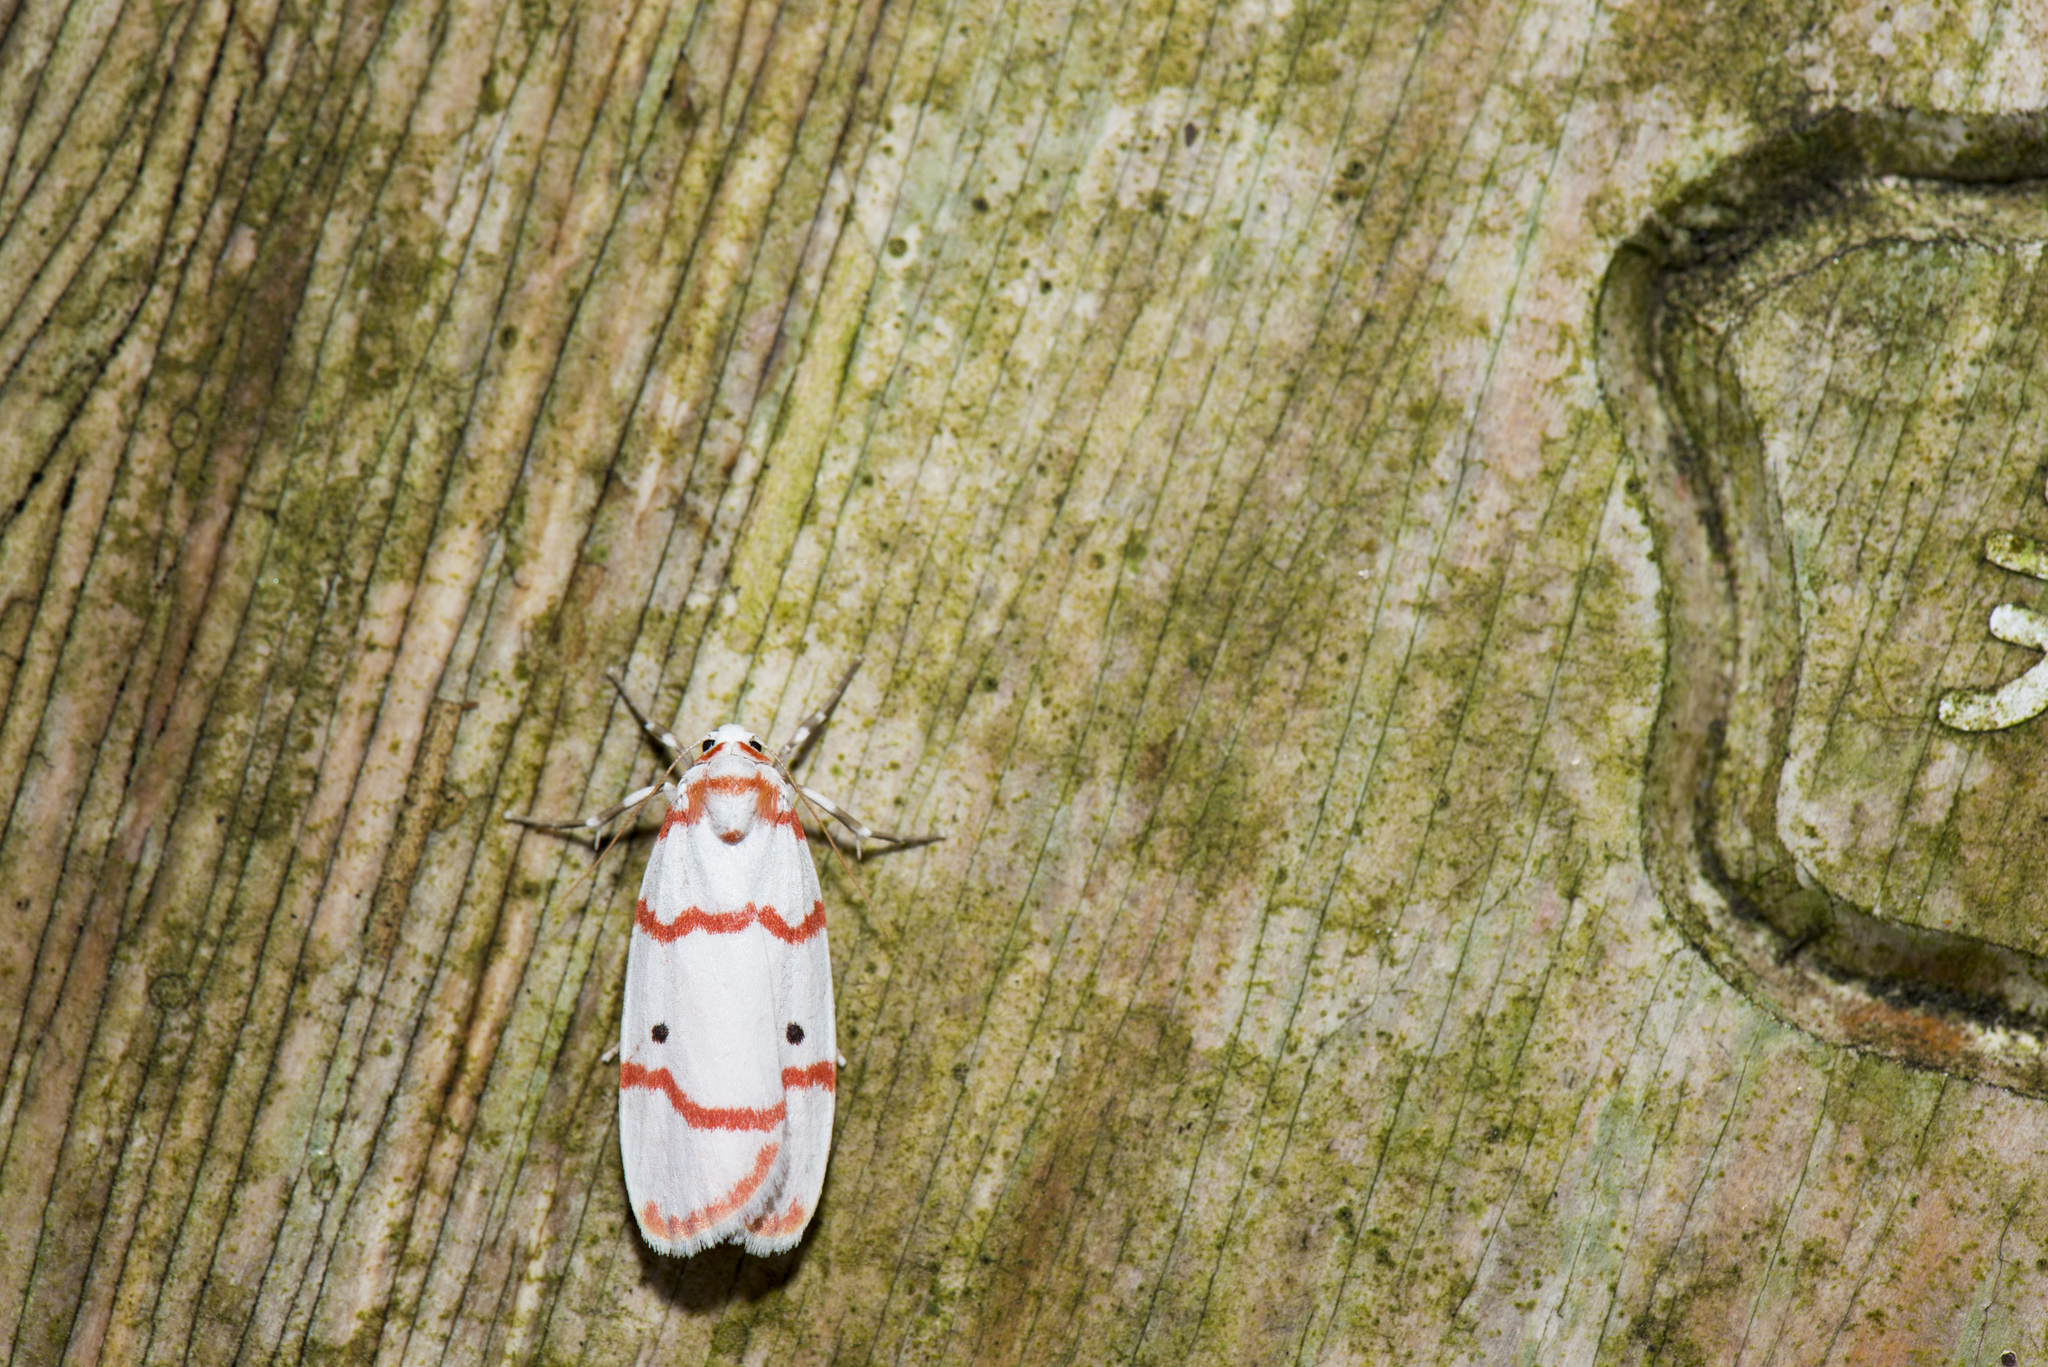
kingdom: Animalia
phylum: Arthropoda
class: Insecta
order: Lepidoptera
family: Erebidae
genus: Cyana
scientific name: Cyana hamata
